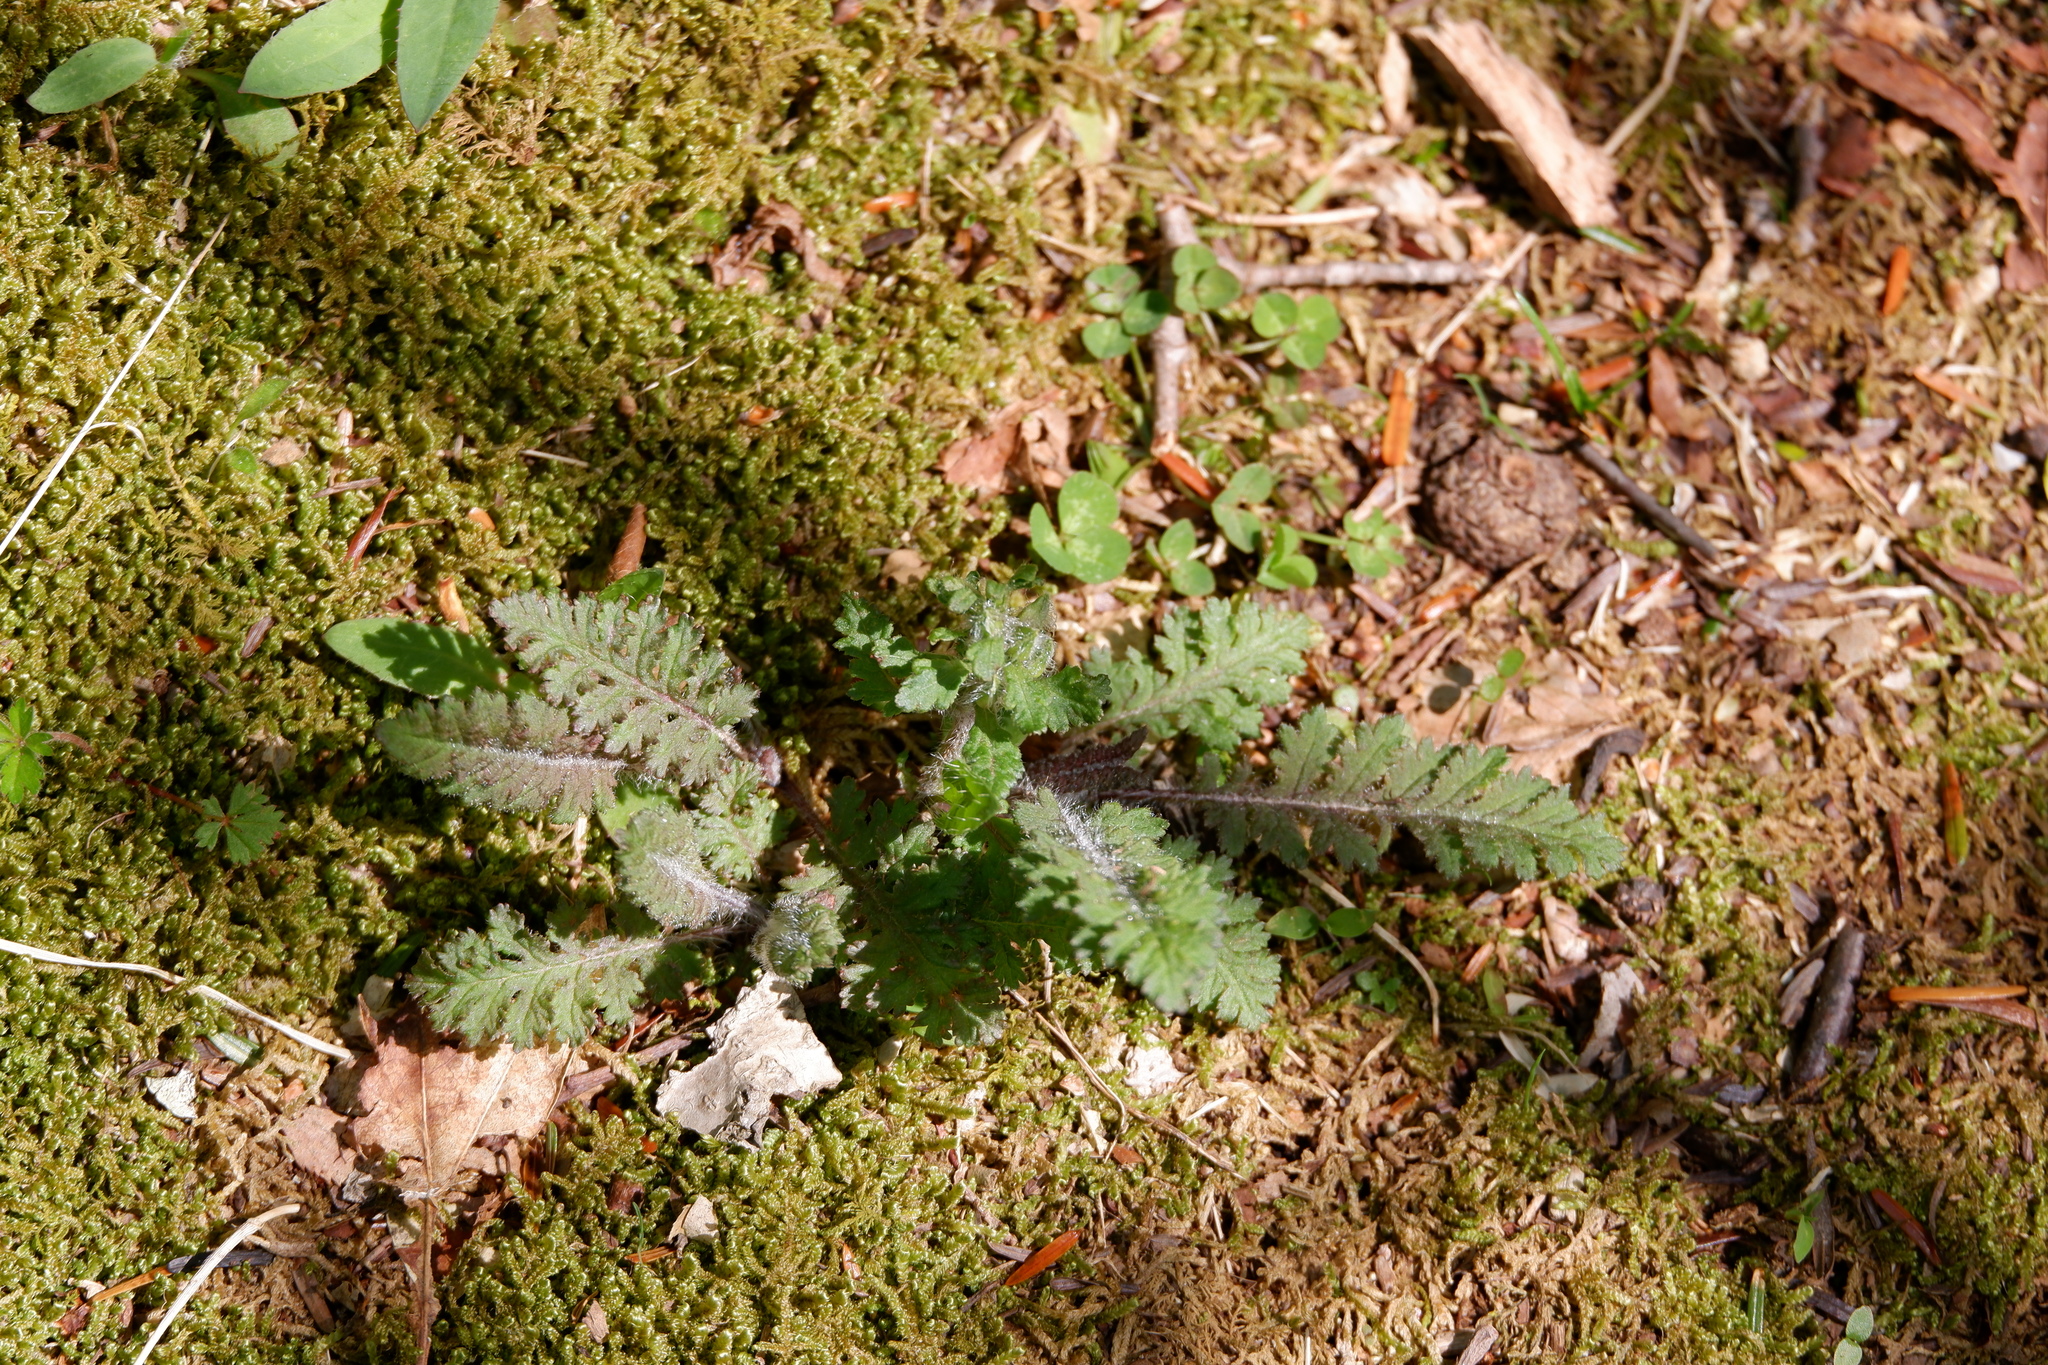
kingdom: Plantae
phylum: Tracheophyta
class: Magnoliopsida
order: Lamiales
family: Orobanchaceae
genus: Pedicularis
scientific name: Pedicularis canadensis
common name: Early lousewort
